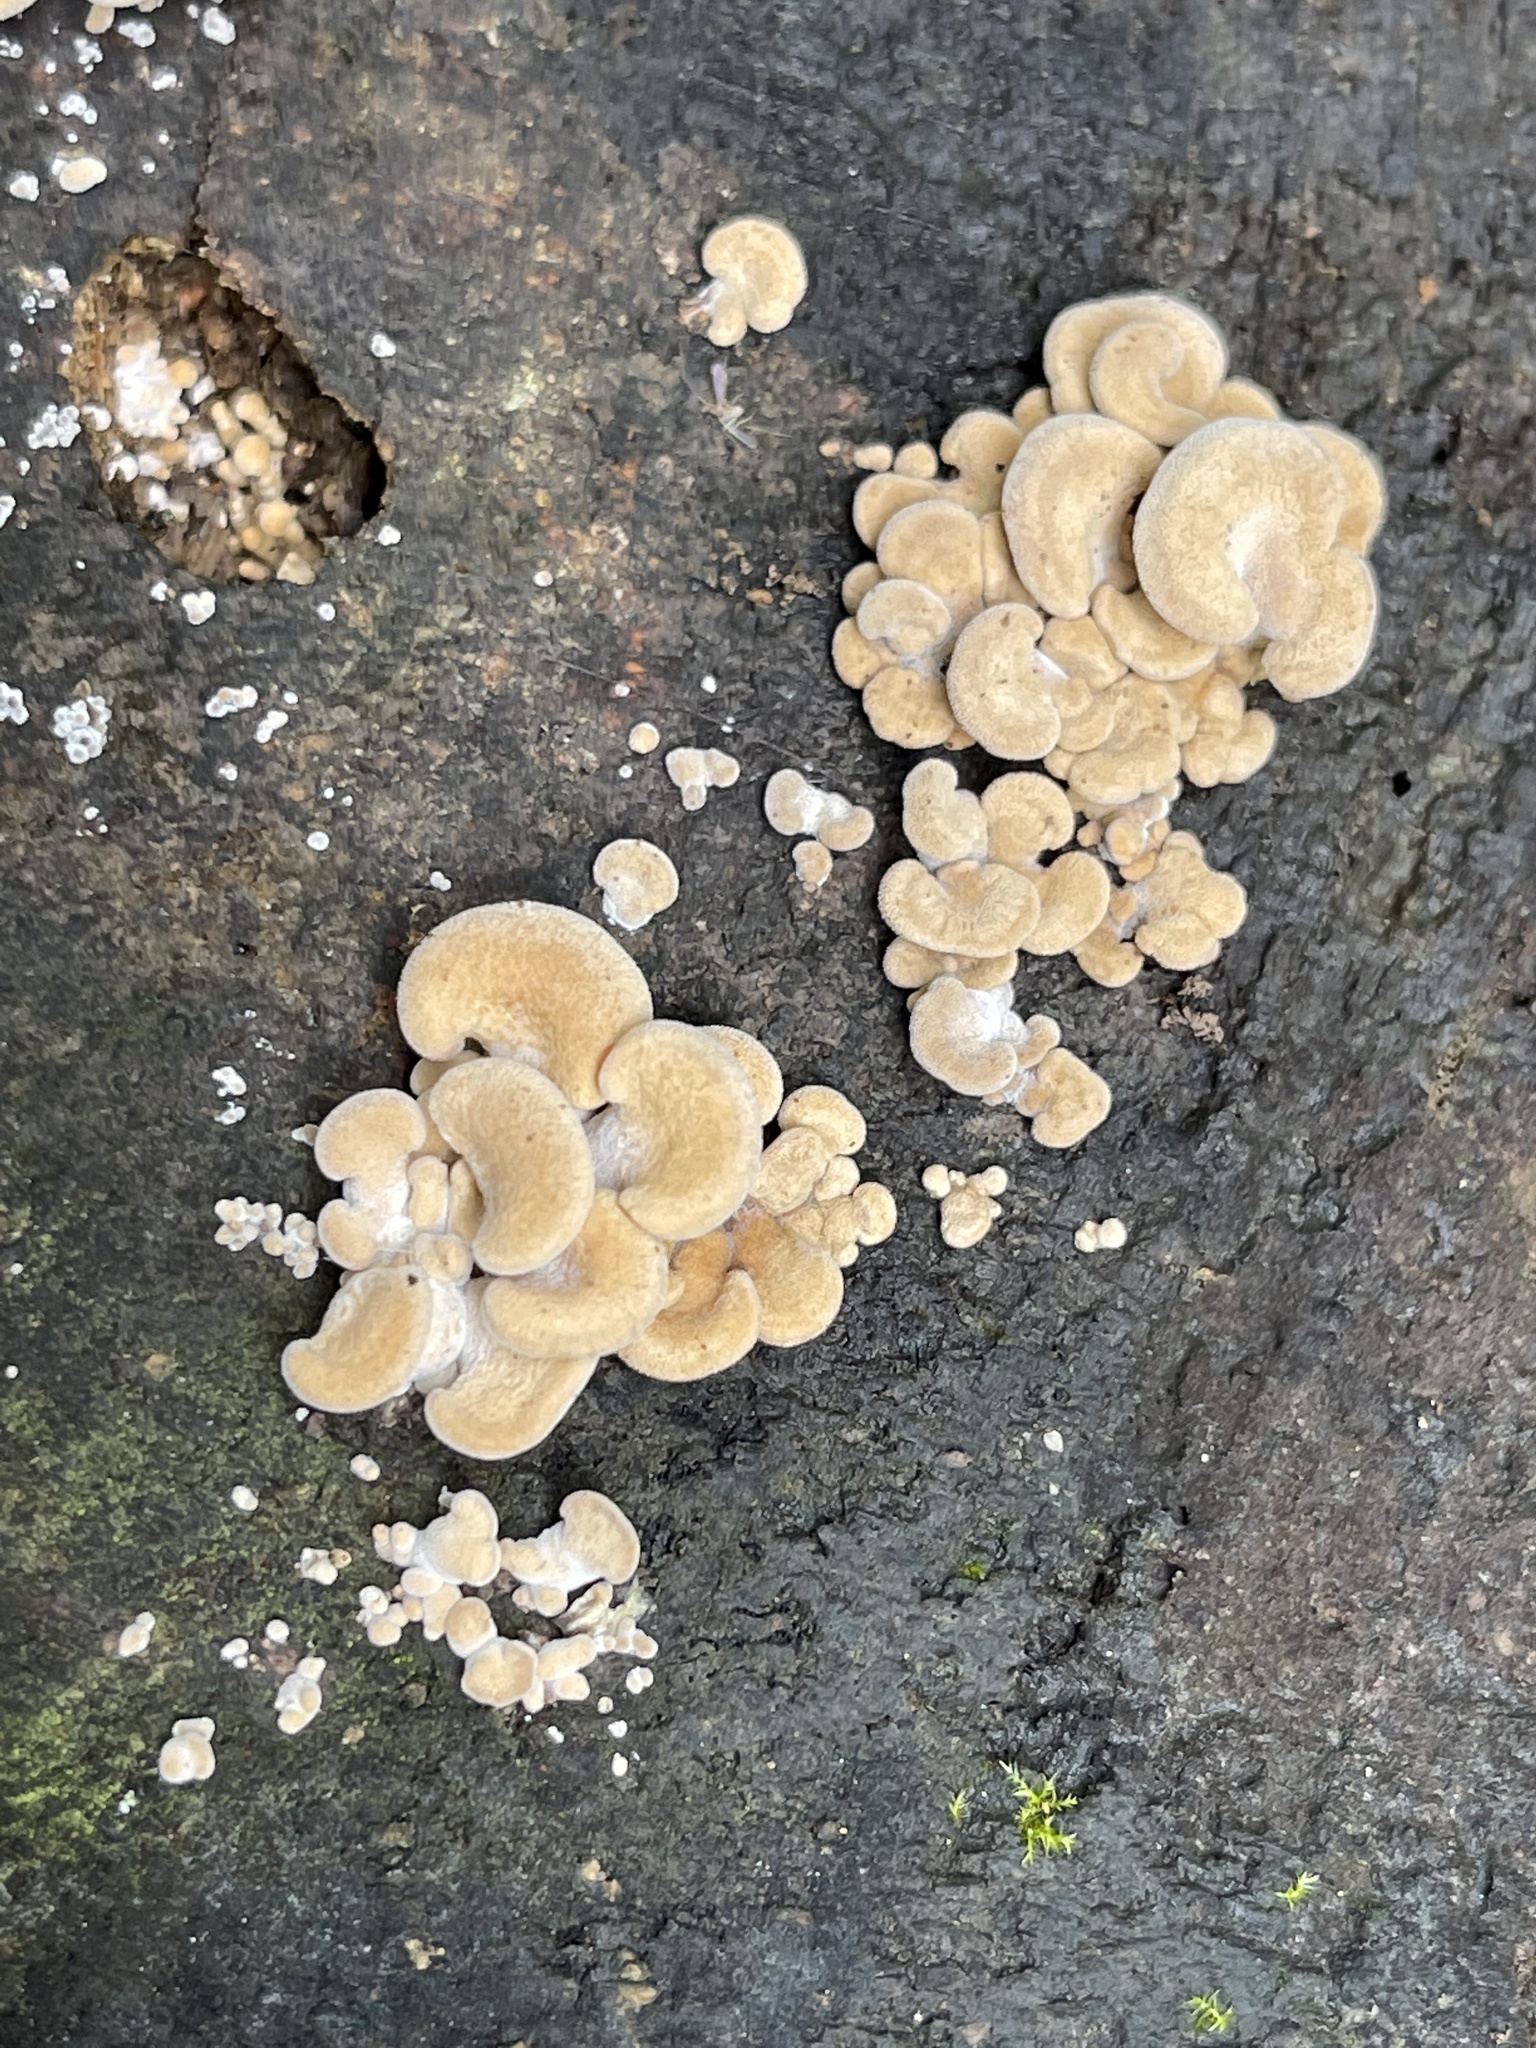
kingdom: Fungi
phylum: Basidiomycota
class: Agaricomycetes
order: Agaricales
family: Mycenaceae
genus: Panellus
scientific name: Panellus stipticus
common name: Bitter oysterling
